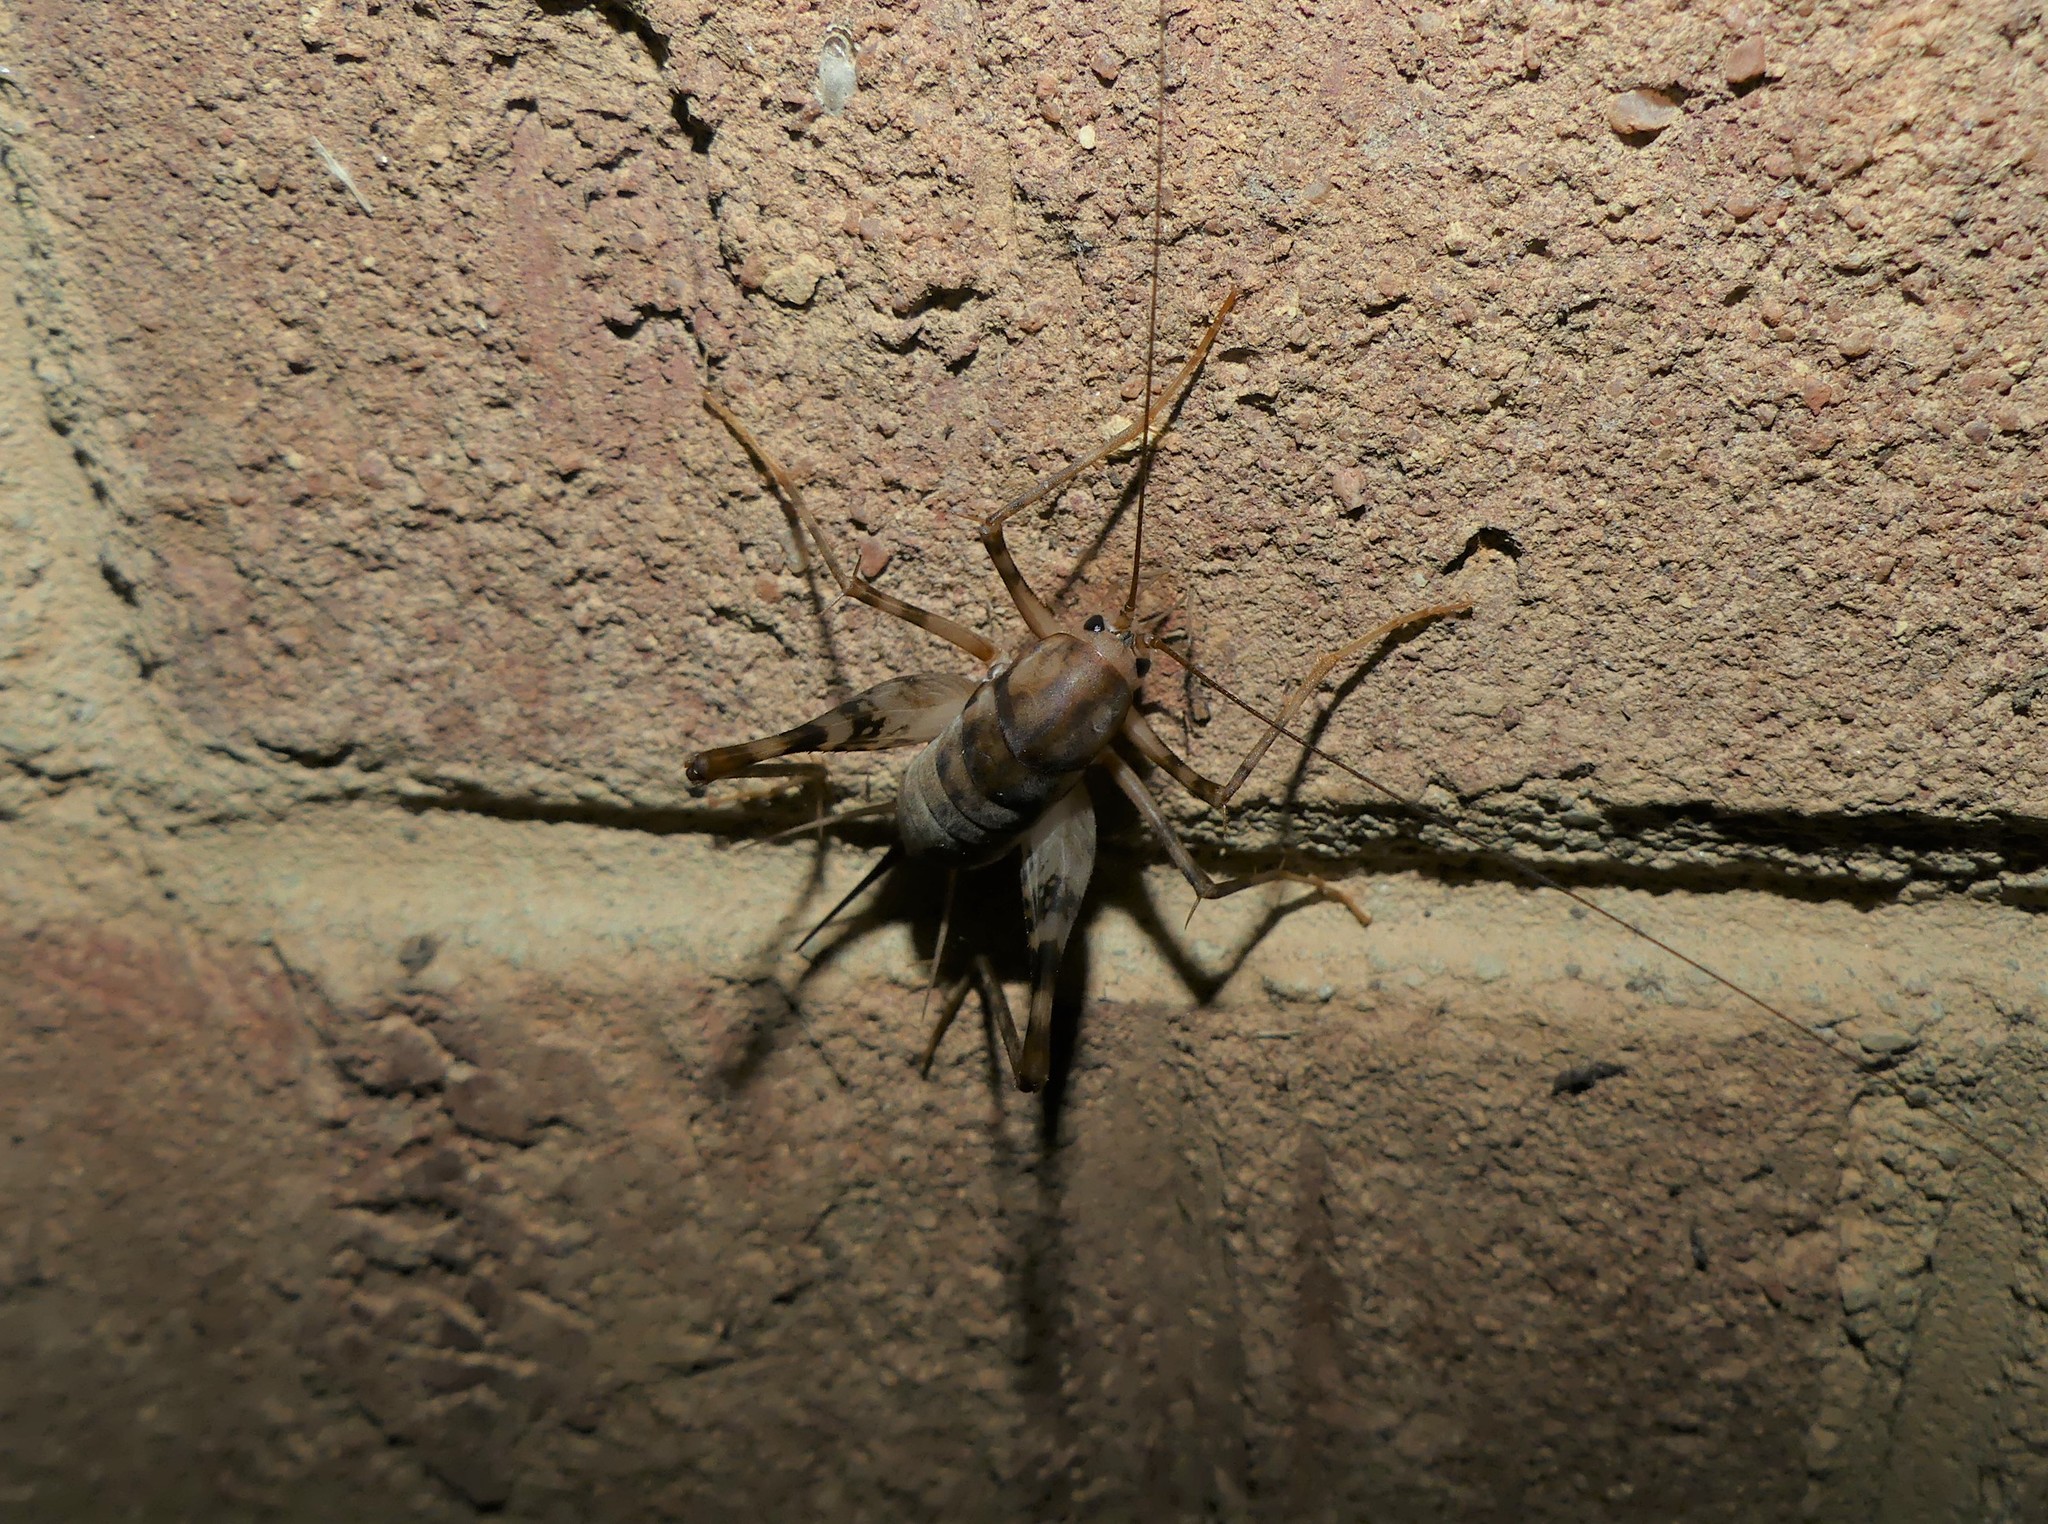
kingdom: Animalia
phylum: Arthropoda
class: Insecta
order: Orthoptera
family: Rhaphidophoridae
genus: Tachycines
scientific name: Tachycines asynamorus
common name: Greenhouse camel cricket
